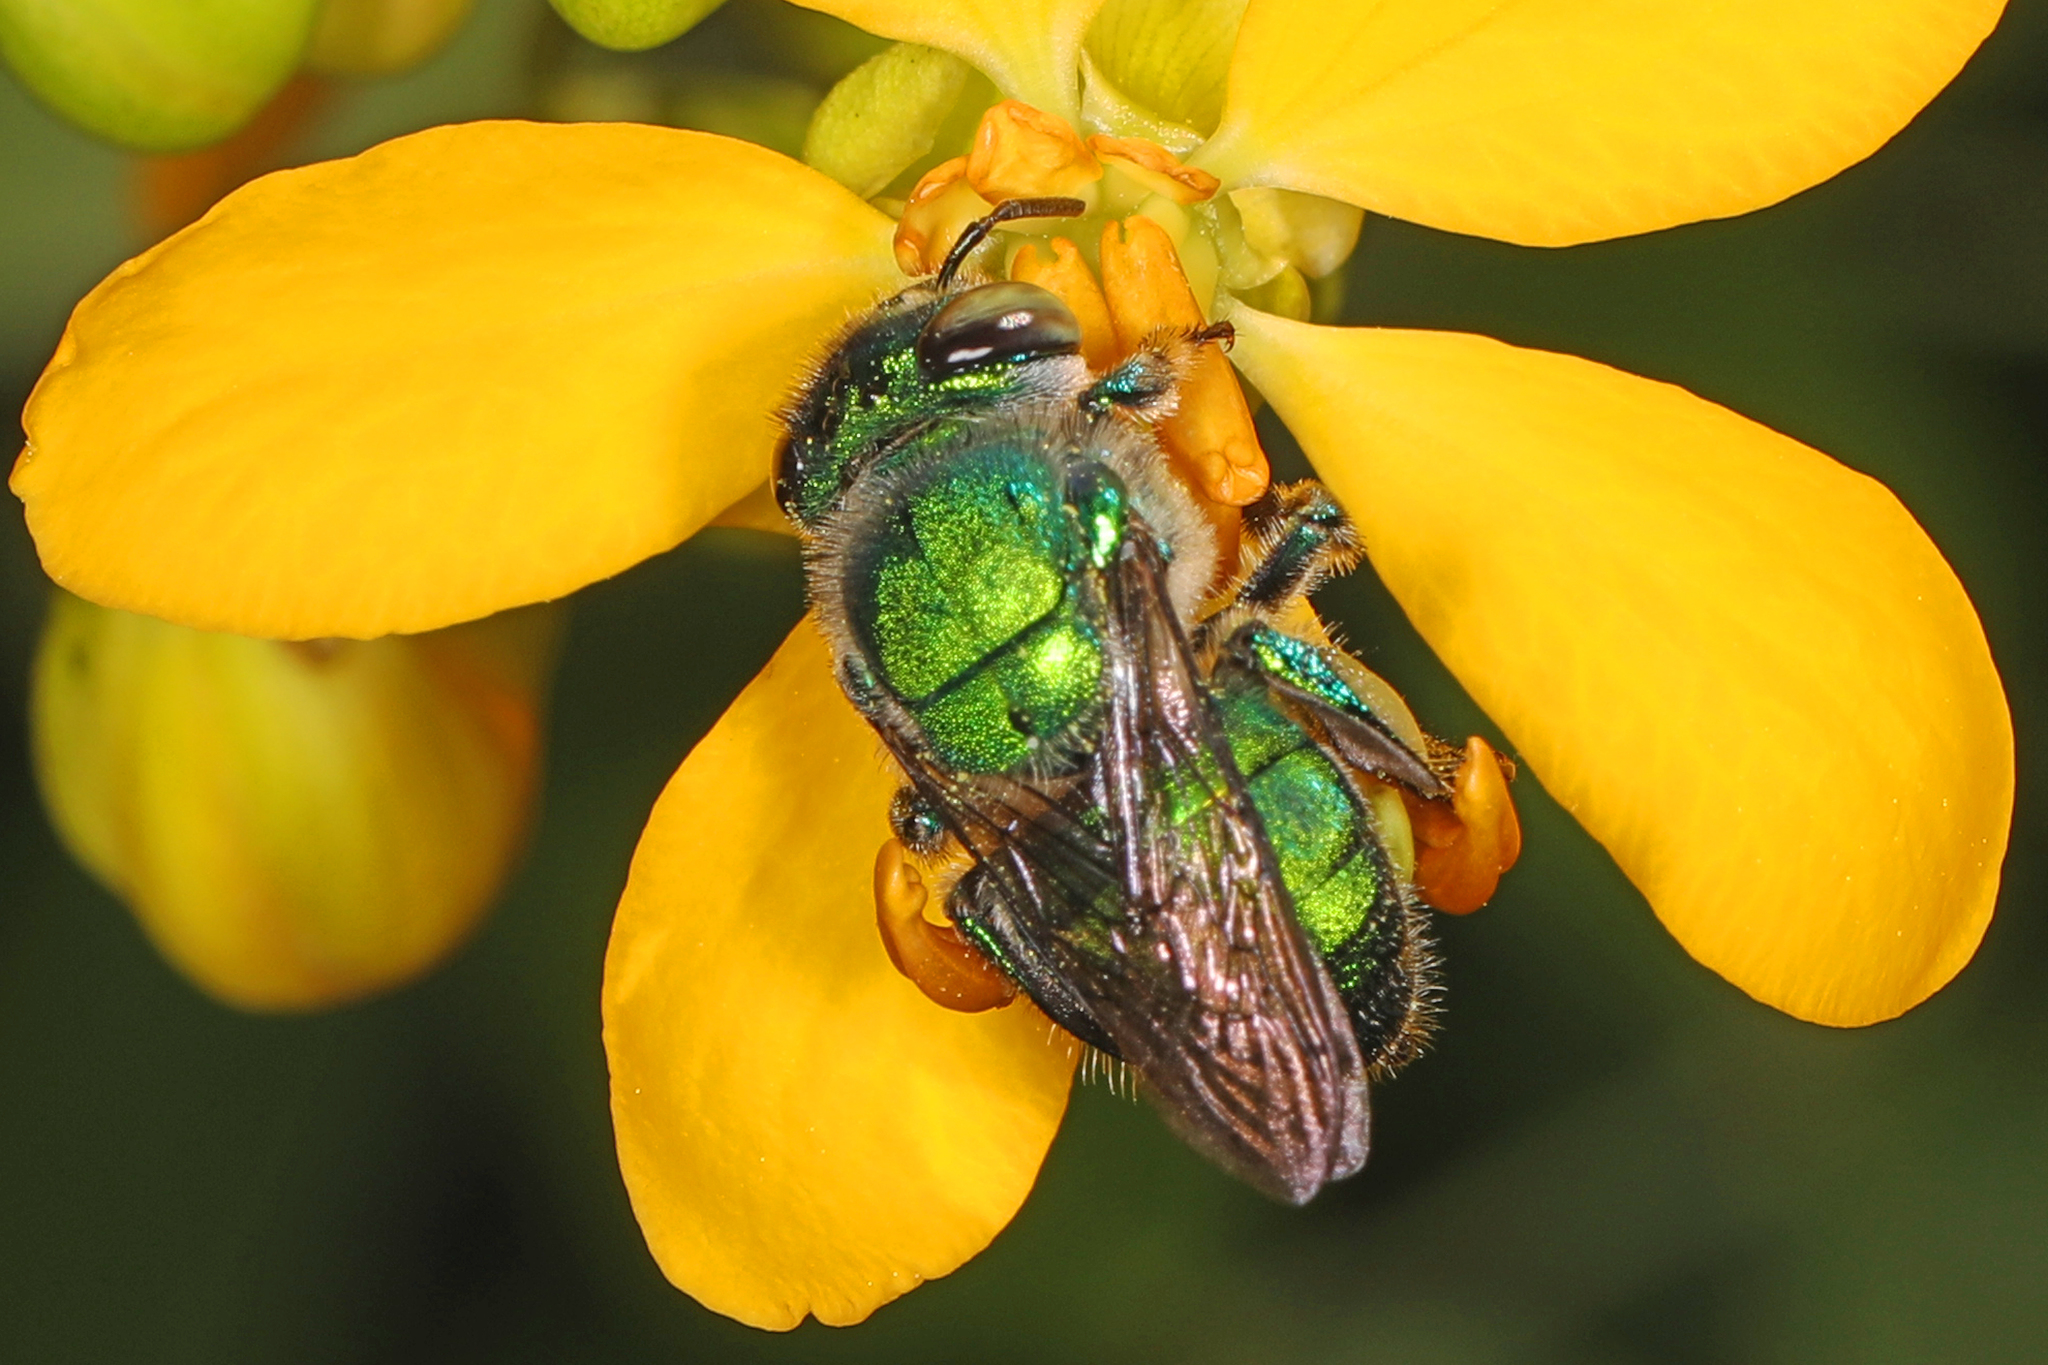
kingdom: Animalia
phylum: Arthropoda
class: Insecta
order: Hymenoptera
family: Apidae
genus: Euglossa
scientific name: Euglossa dilemma
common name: Green orchid bee
